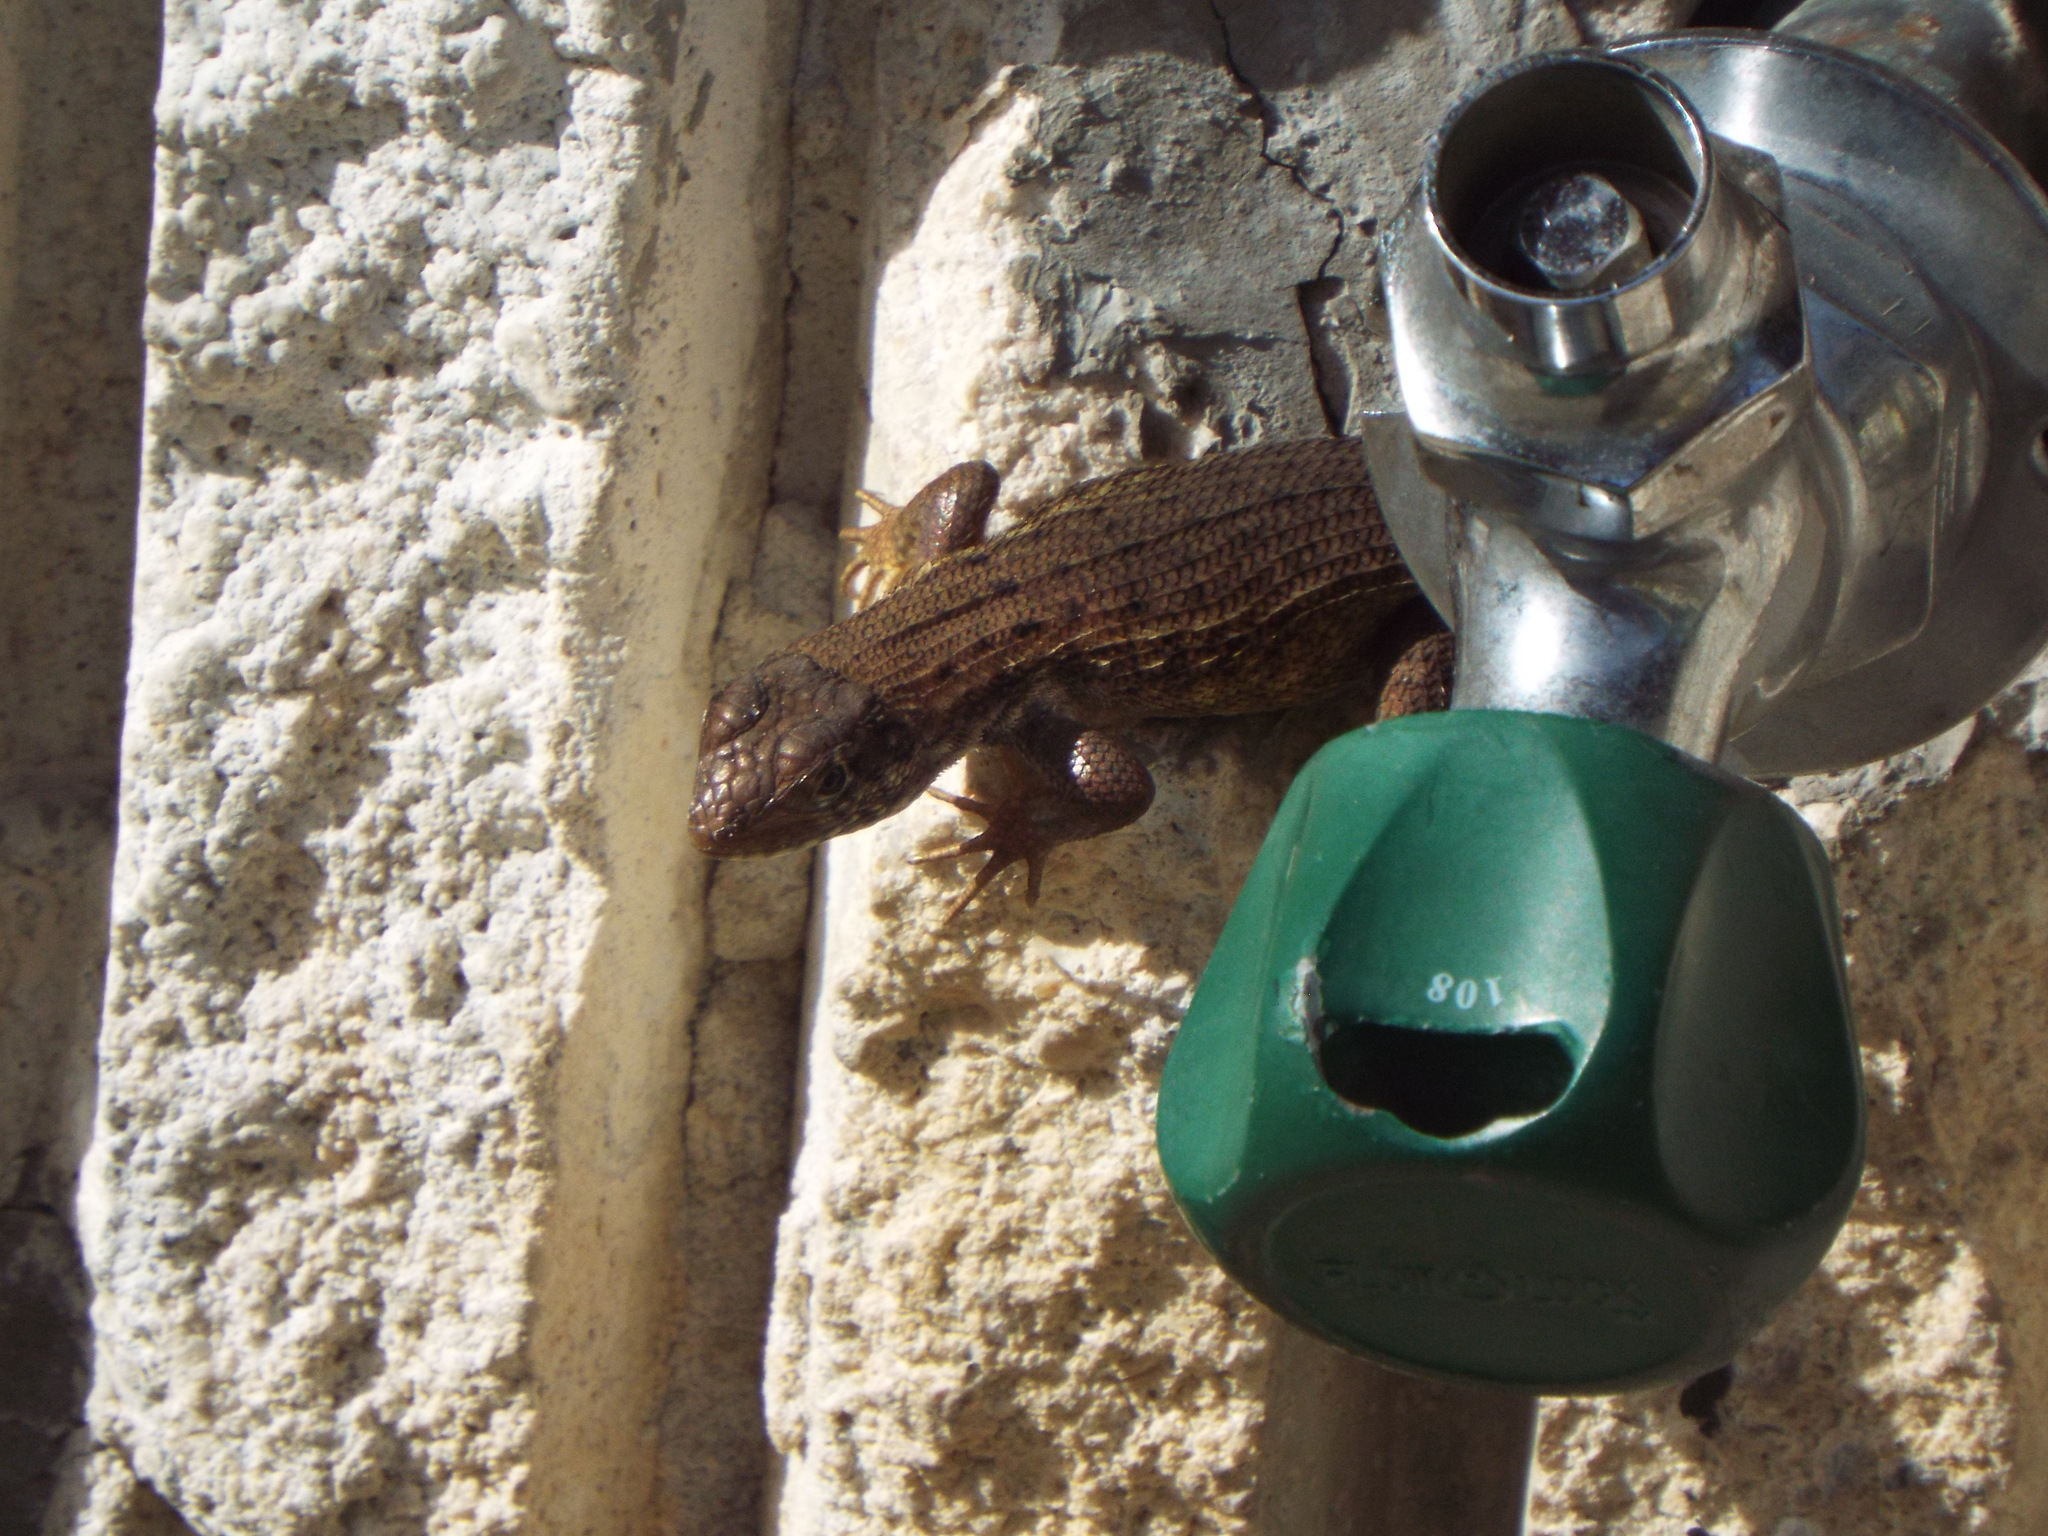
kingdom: Animalia
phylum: Chordata
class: Squamata
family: Leiocephalidae
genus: Leiocephalus
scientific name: Leiocephalus carinatus
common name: Northern curly-tailed lizard
